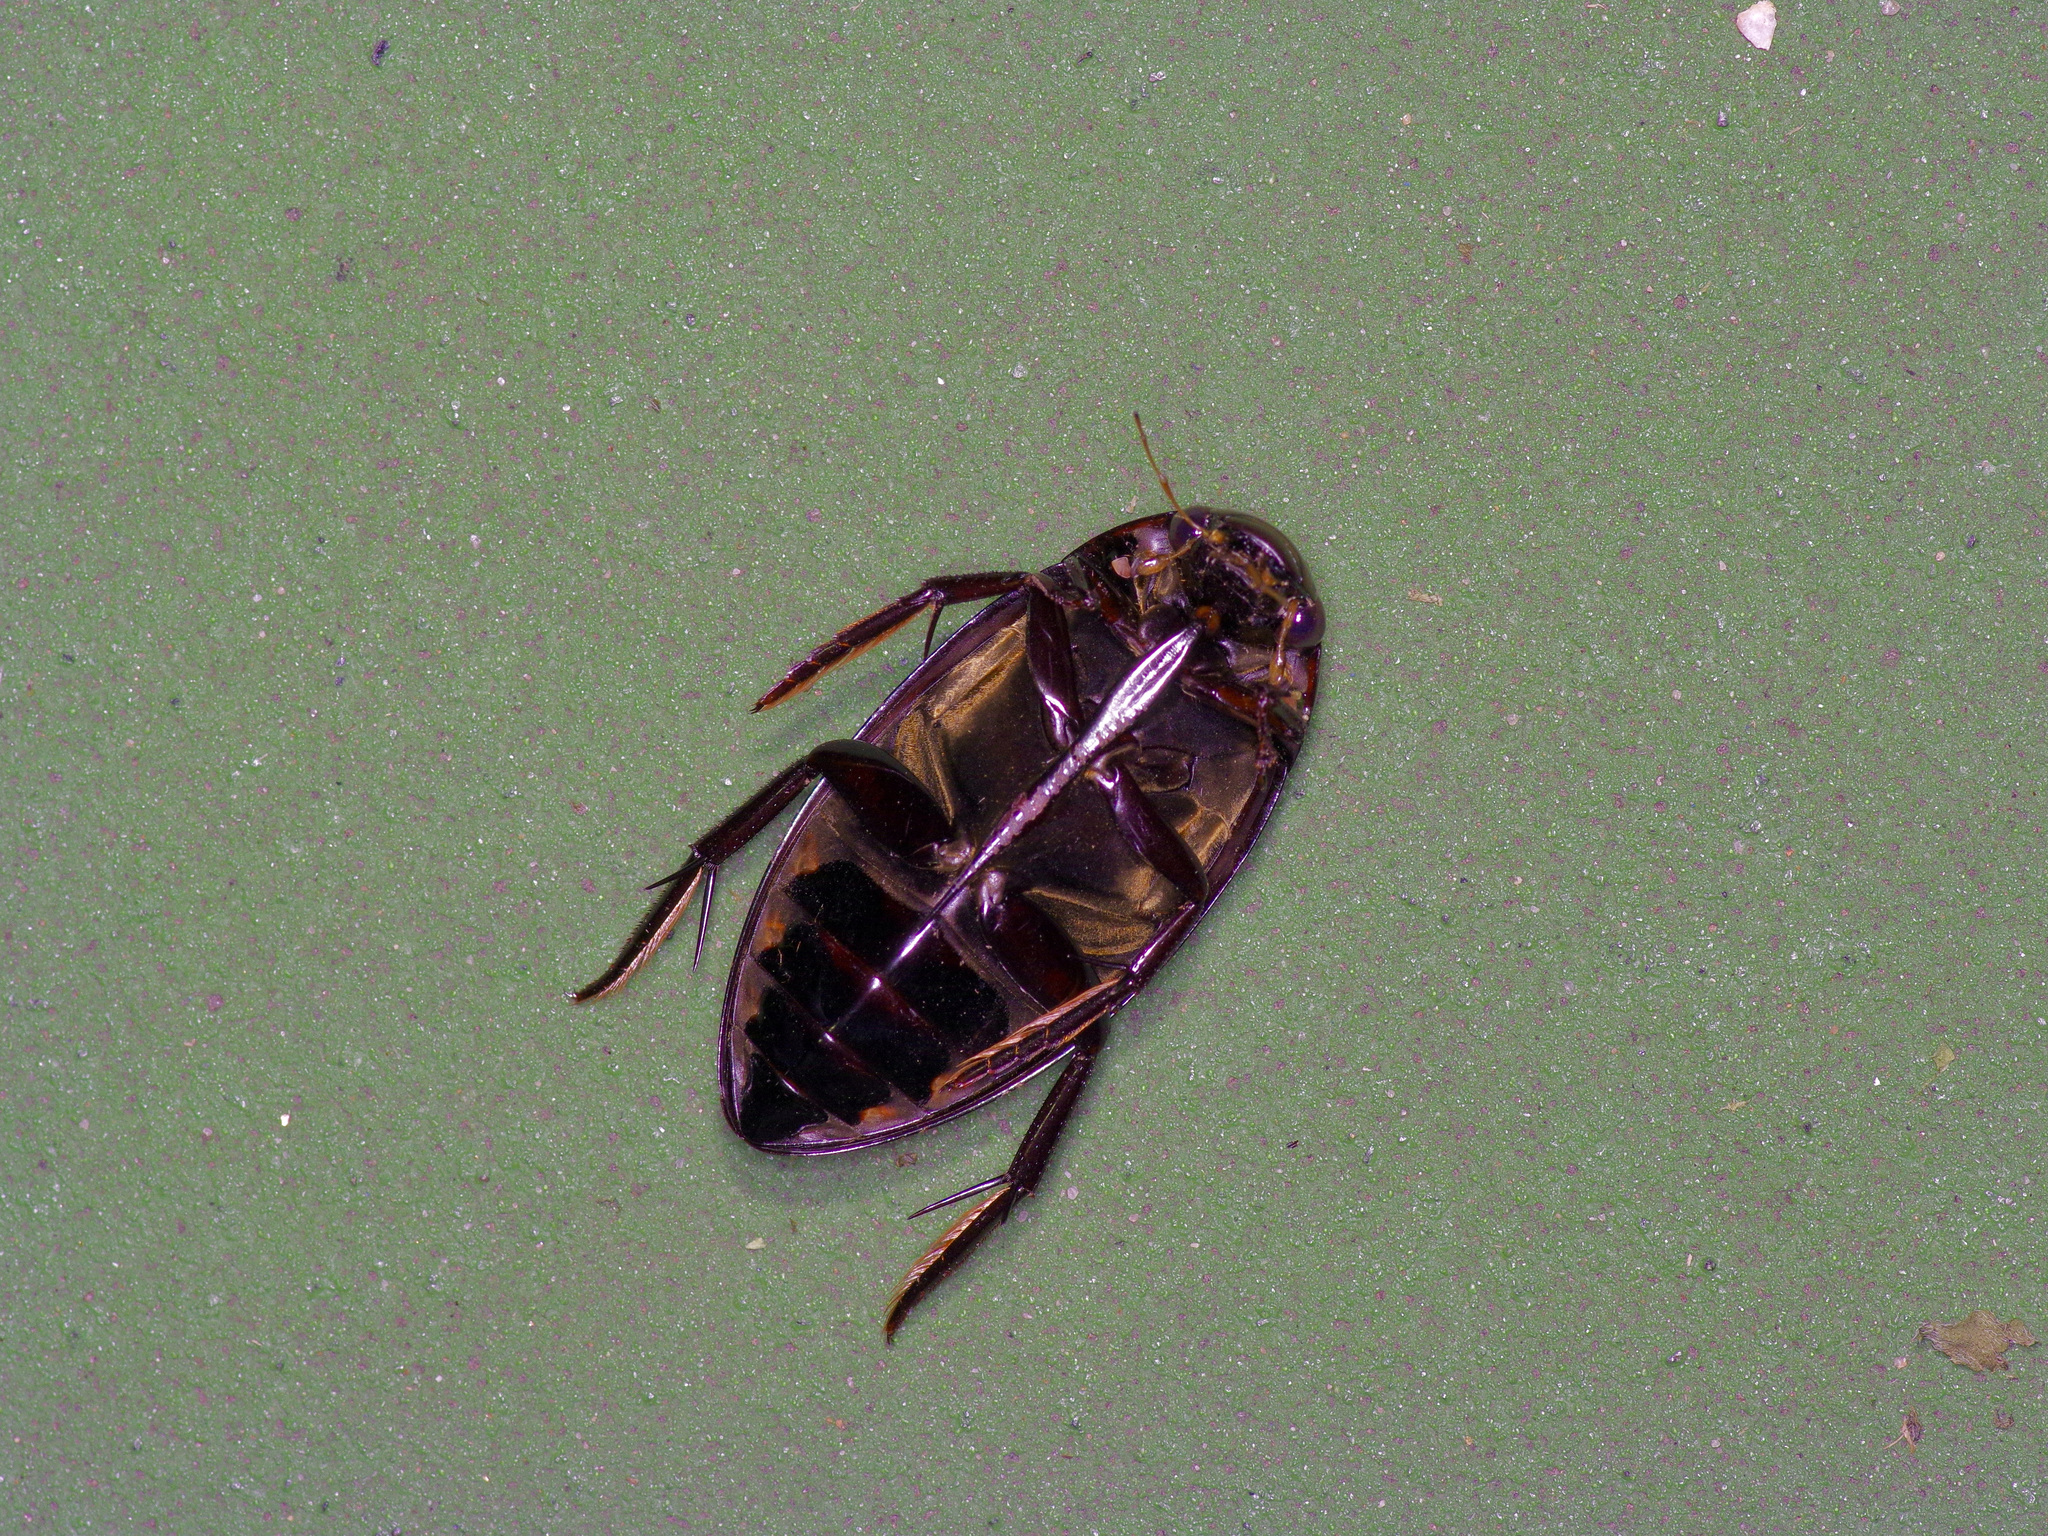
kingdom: Animalia
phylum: Arthropoda
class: Insecta
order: Coleoptera
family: Hydrophilidae
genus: Hydrophilus
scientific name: Hydrophilus triangularis
